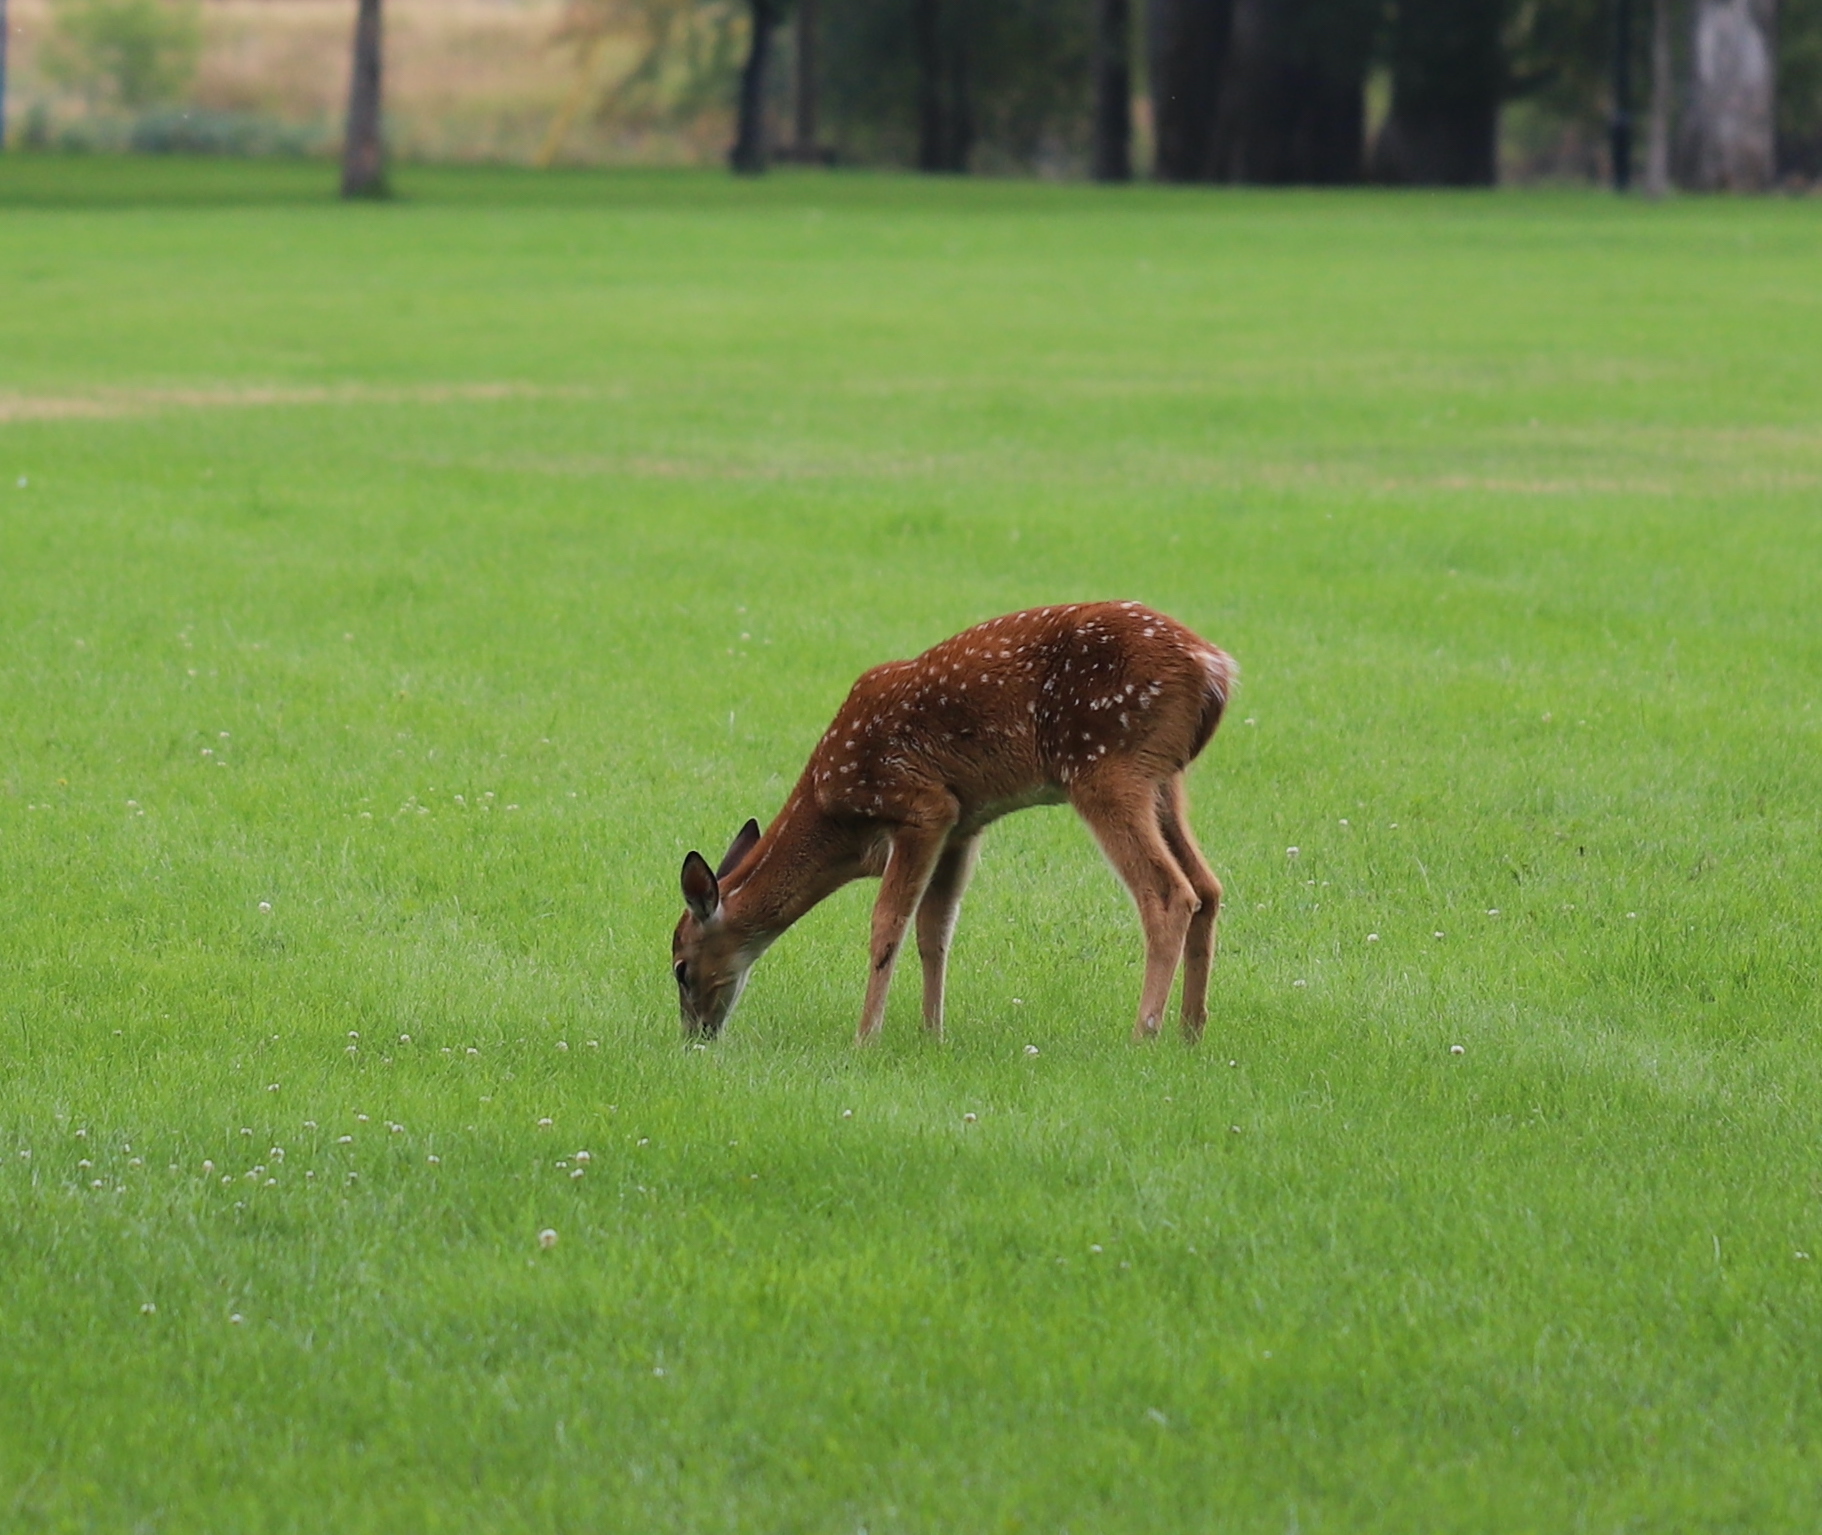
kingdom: Animalia
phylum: Chordata
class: Mammalia
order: Artiodactyla
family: Cervidae
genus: Odocoileus
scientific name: Odocoileus virginianus
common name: White-tailed deer
